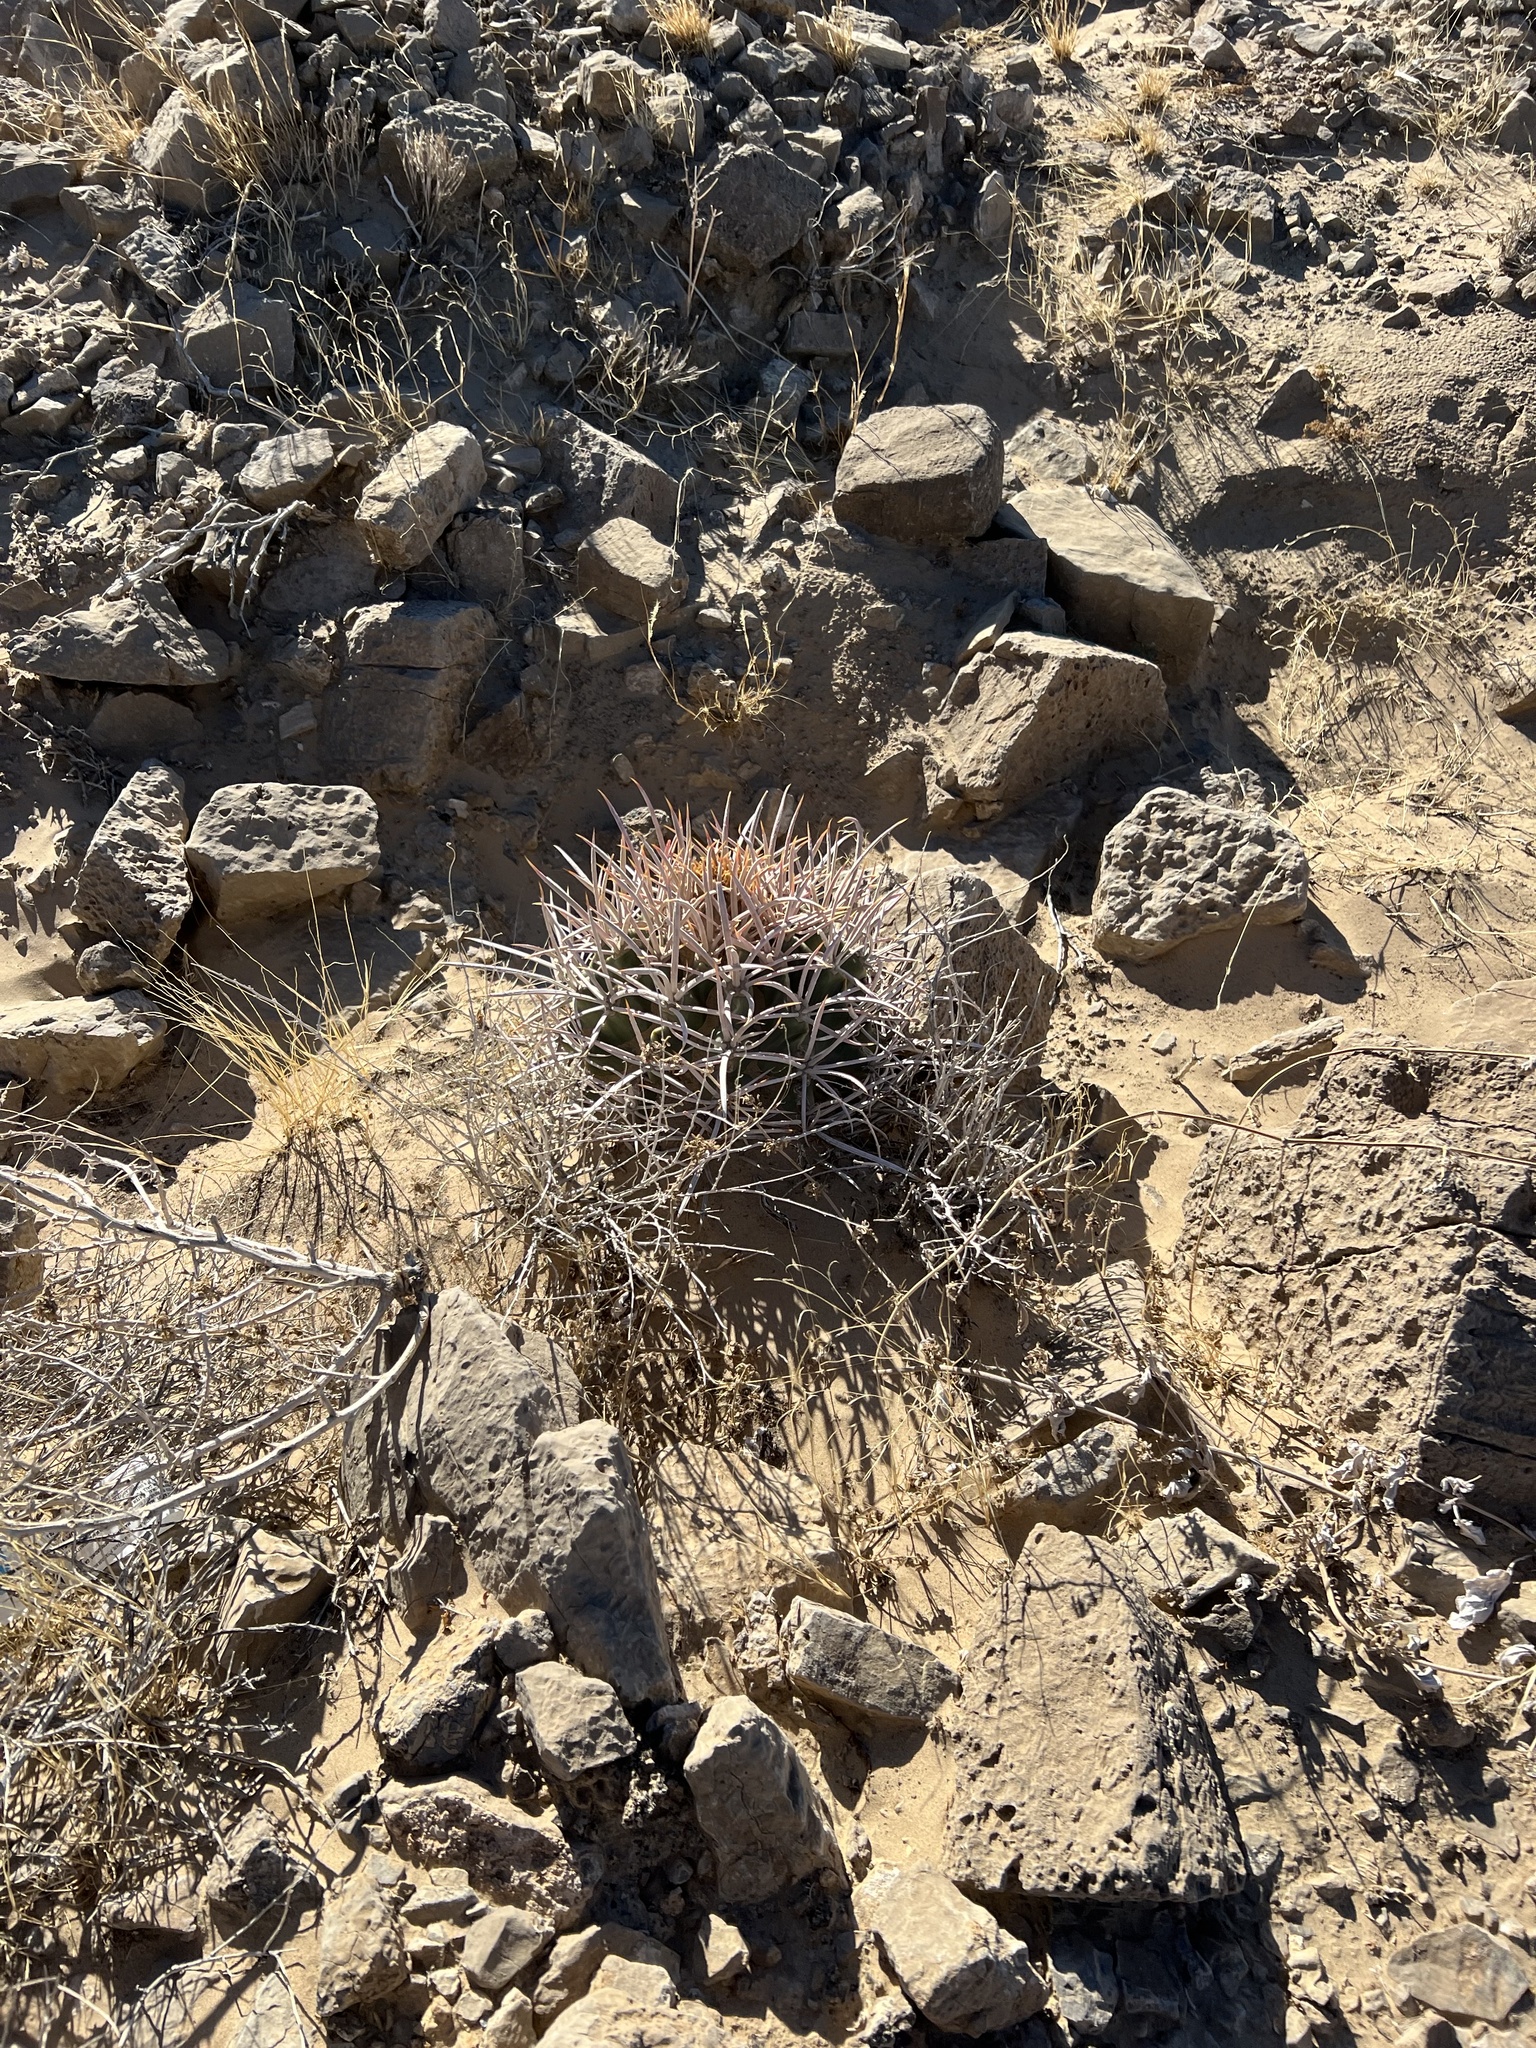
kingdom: Plantae
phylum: Tracheophyta
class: Magnoliopsida
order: Caryophyllales
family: Cactaceae
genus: Echinocactus
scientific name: Echinocactus polycephalus
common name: Cottontop cactus
